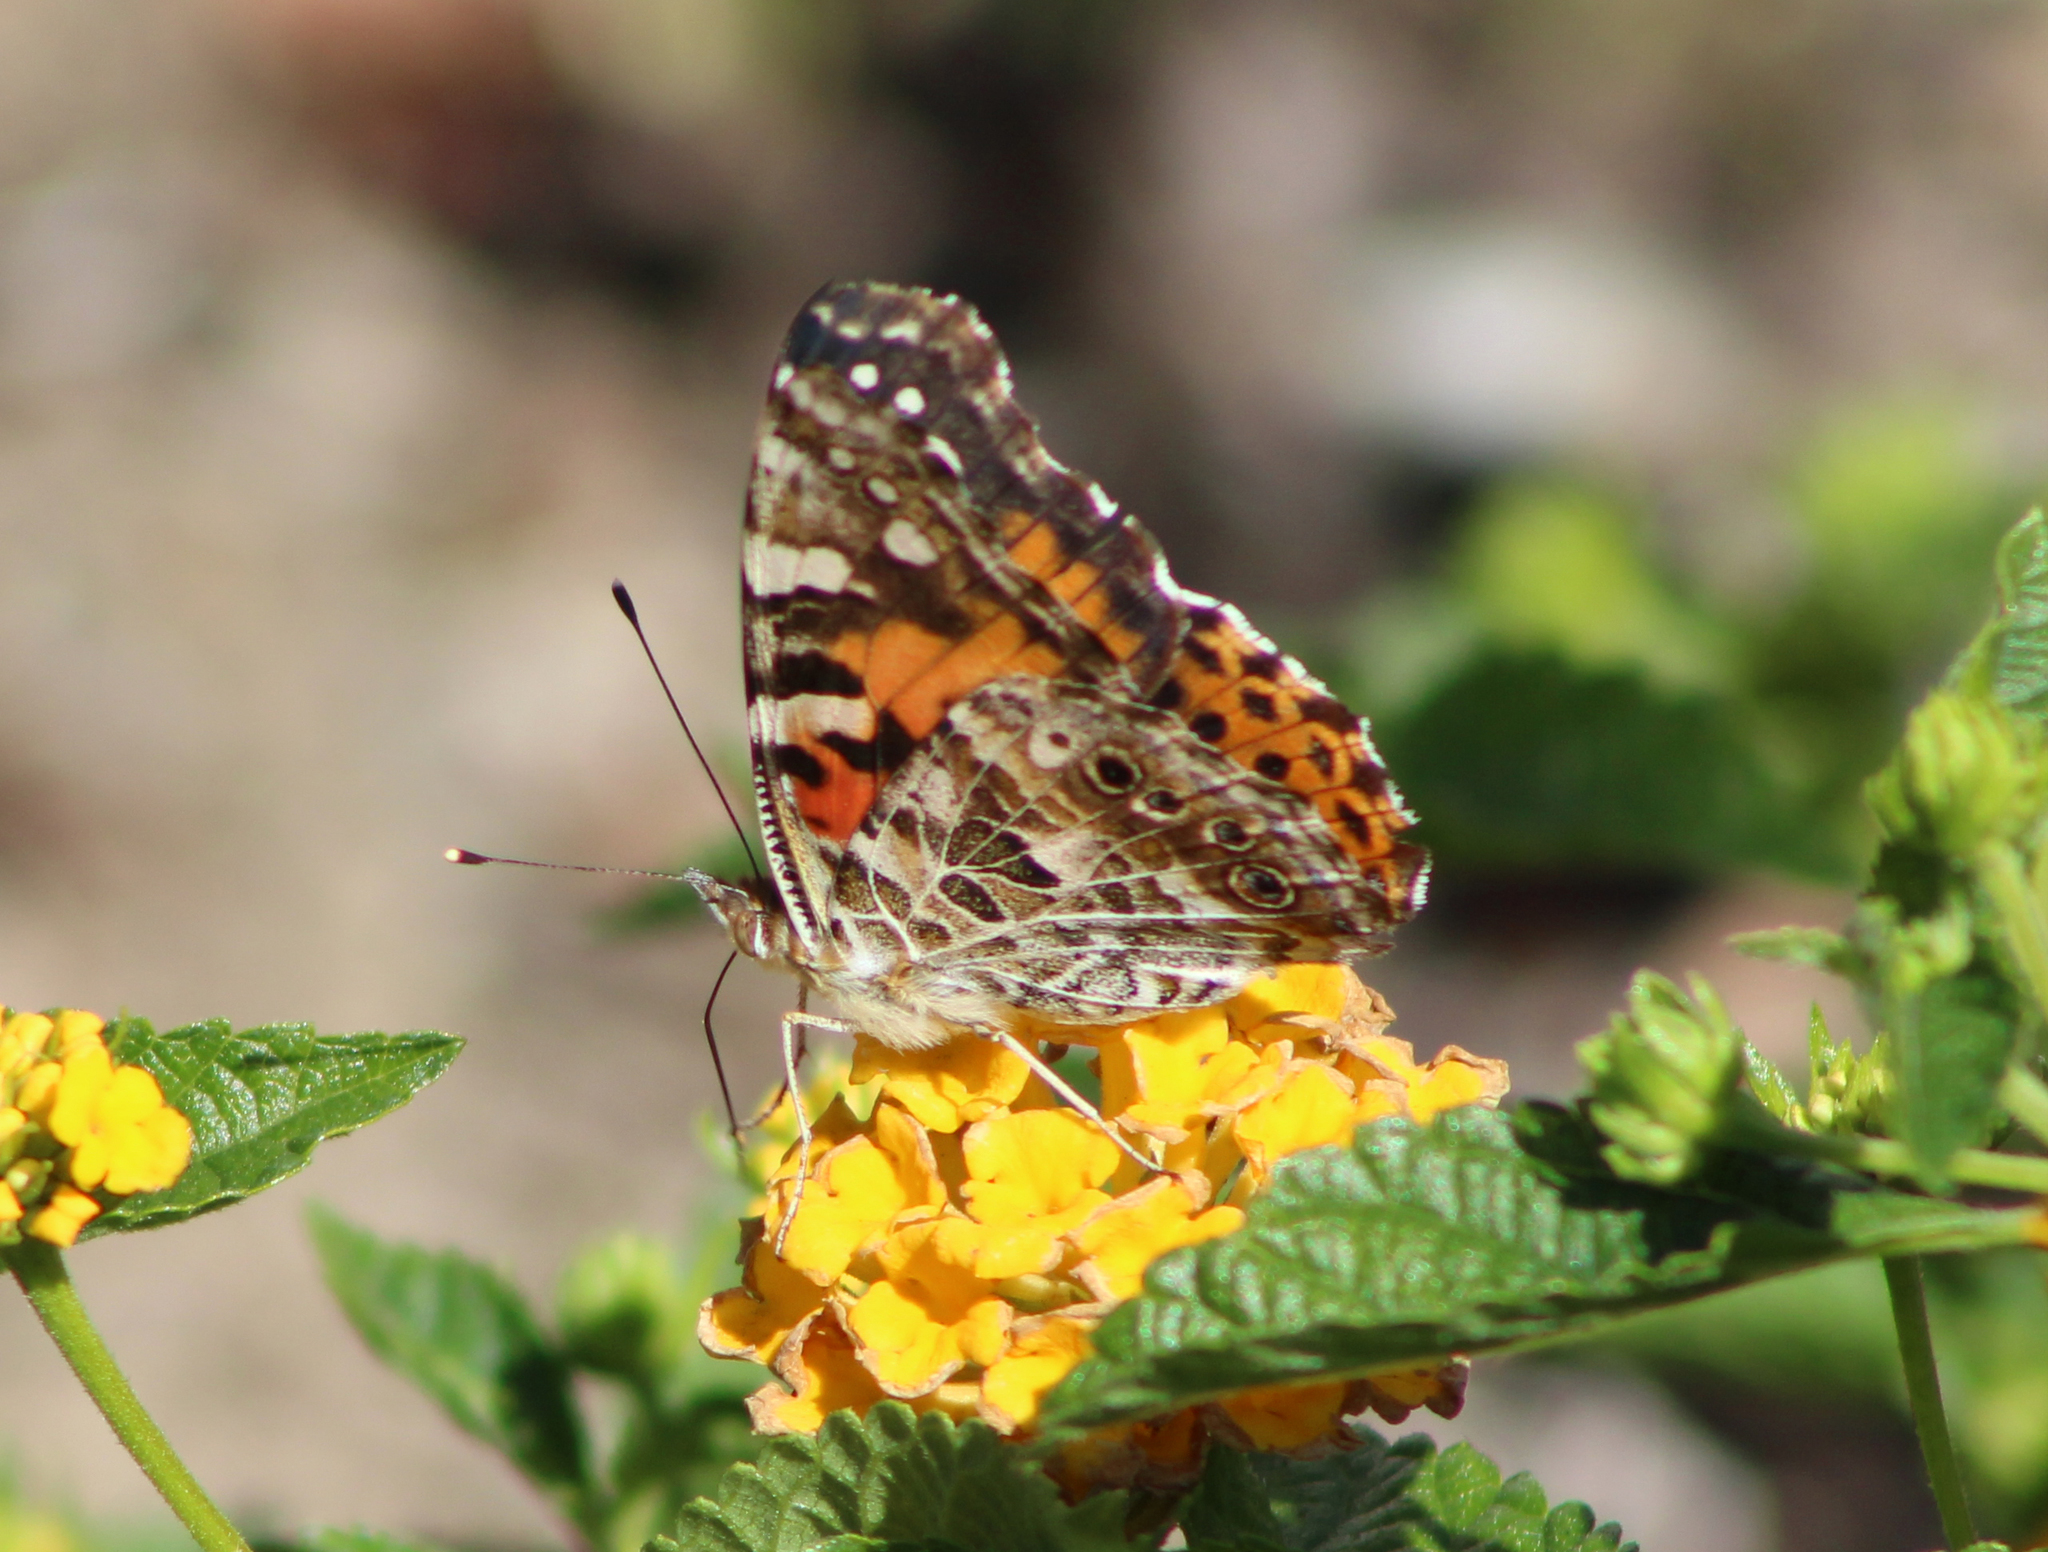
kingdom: Animalia
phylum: Arthropoda
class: Insecta
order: Lepidoptera
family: Nymphalidae
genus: Vanessa
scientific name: Vanessa cardui
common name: Painted lady
